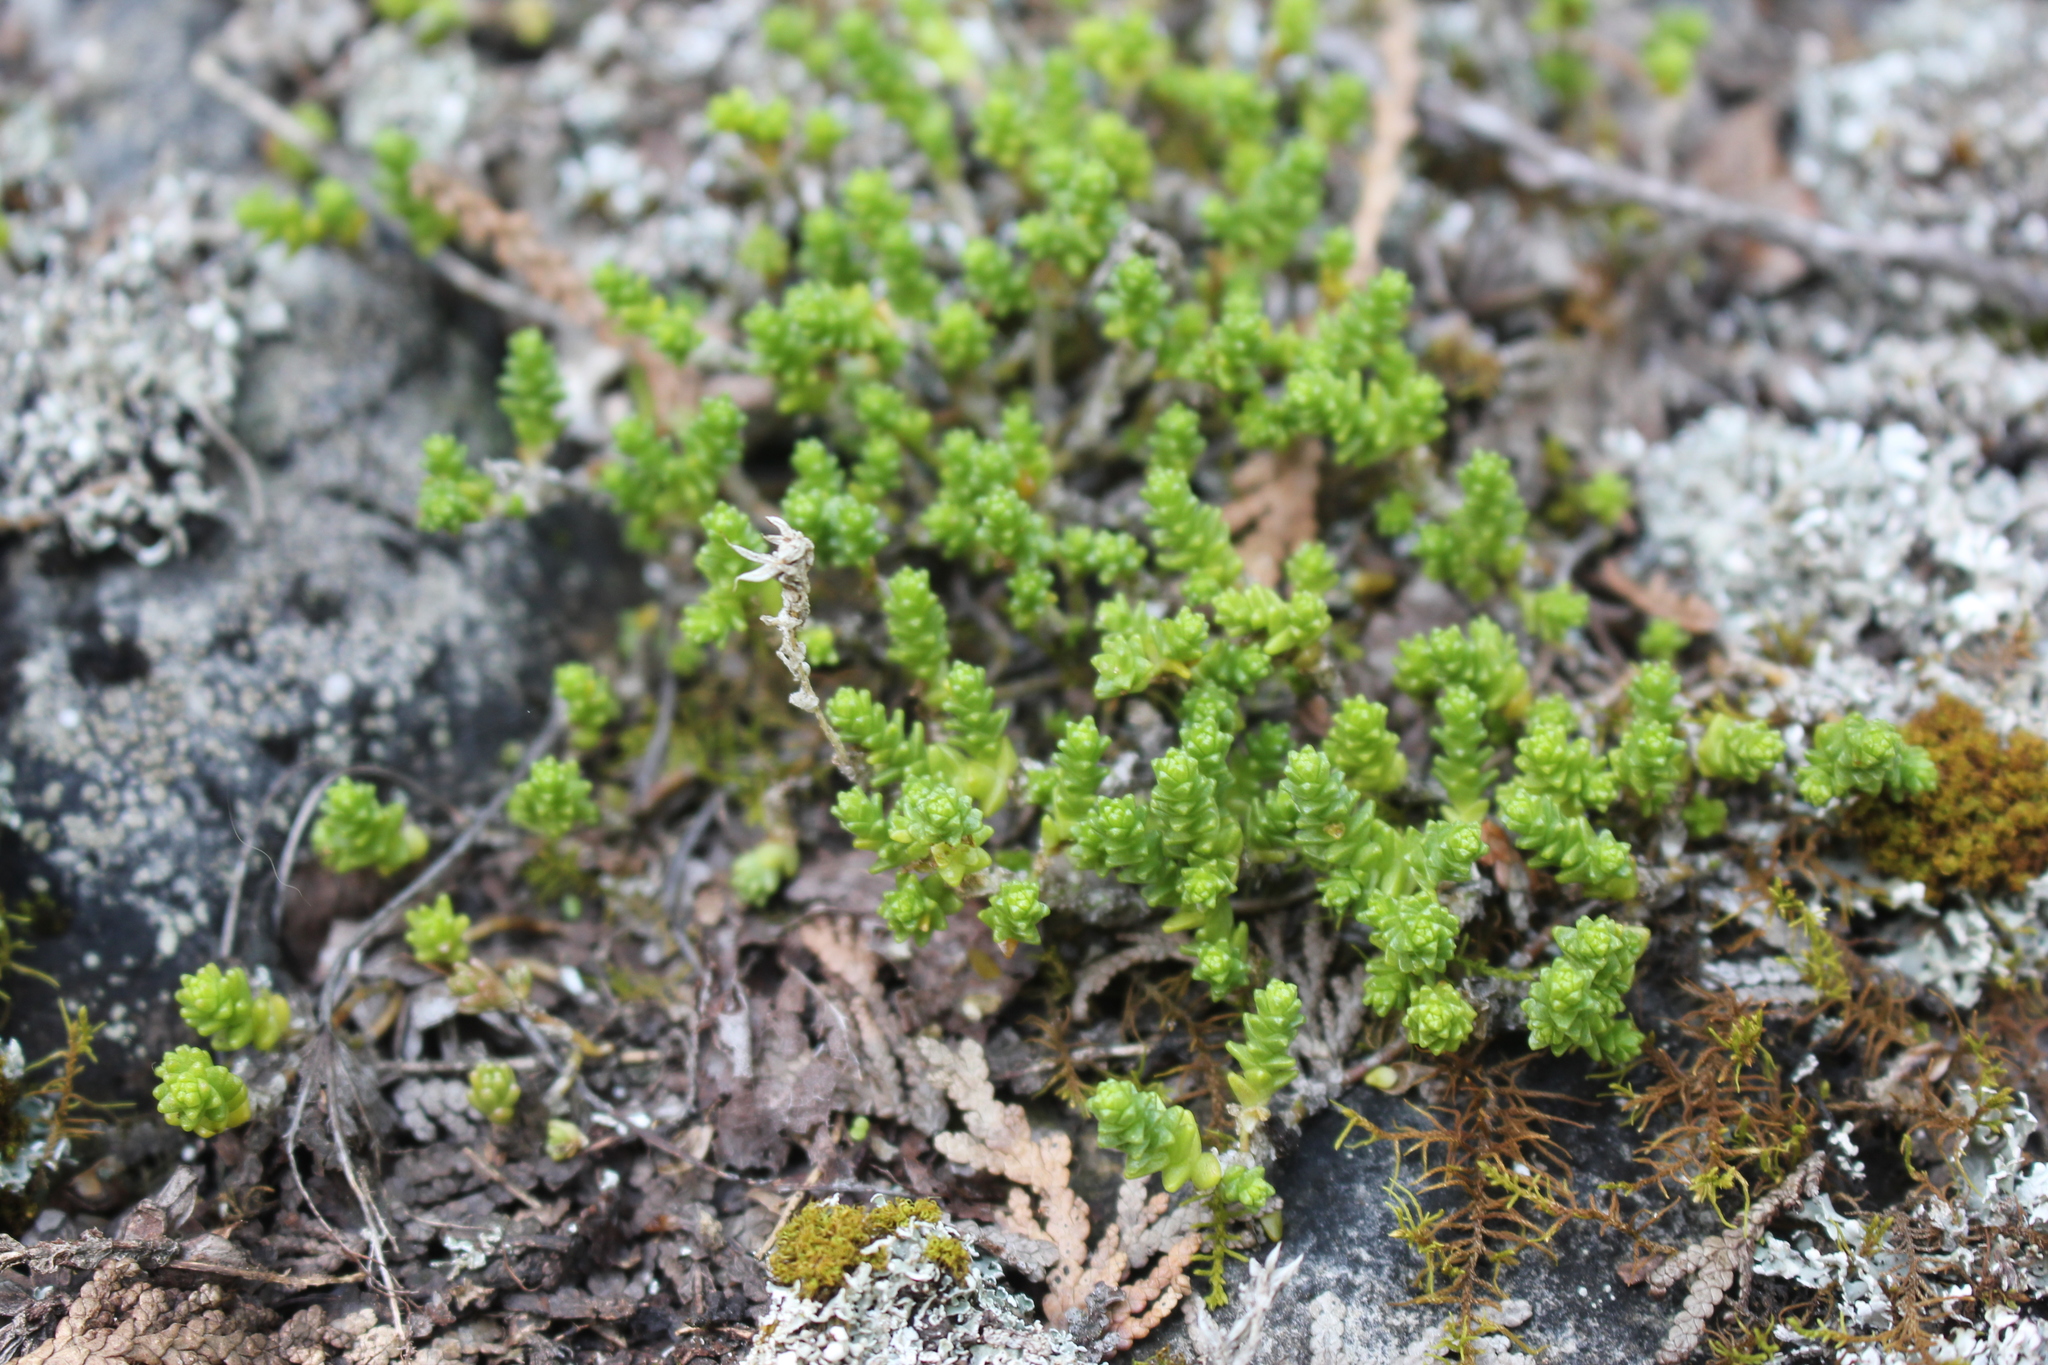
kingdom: Plantae
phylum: Tracheophyta
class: Magnoliopsida
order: Saxifragales
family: Crassulaceae
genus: Sedum
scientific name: Sedum acre
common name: Biting stonecrop
